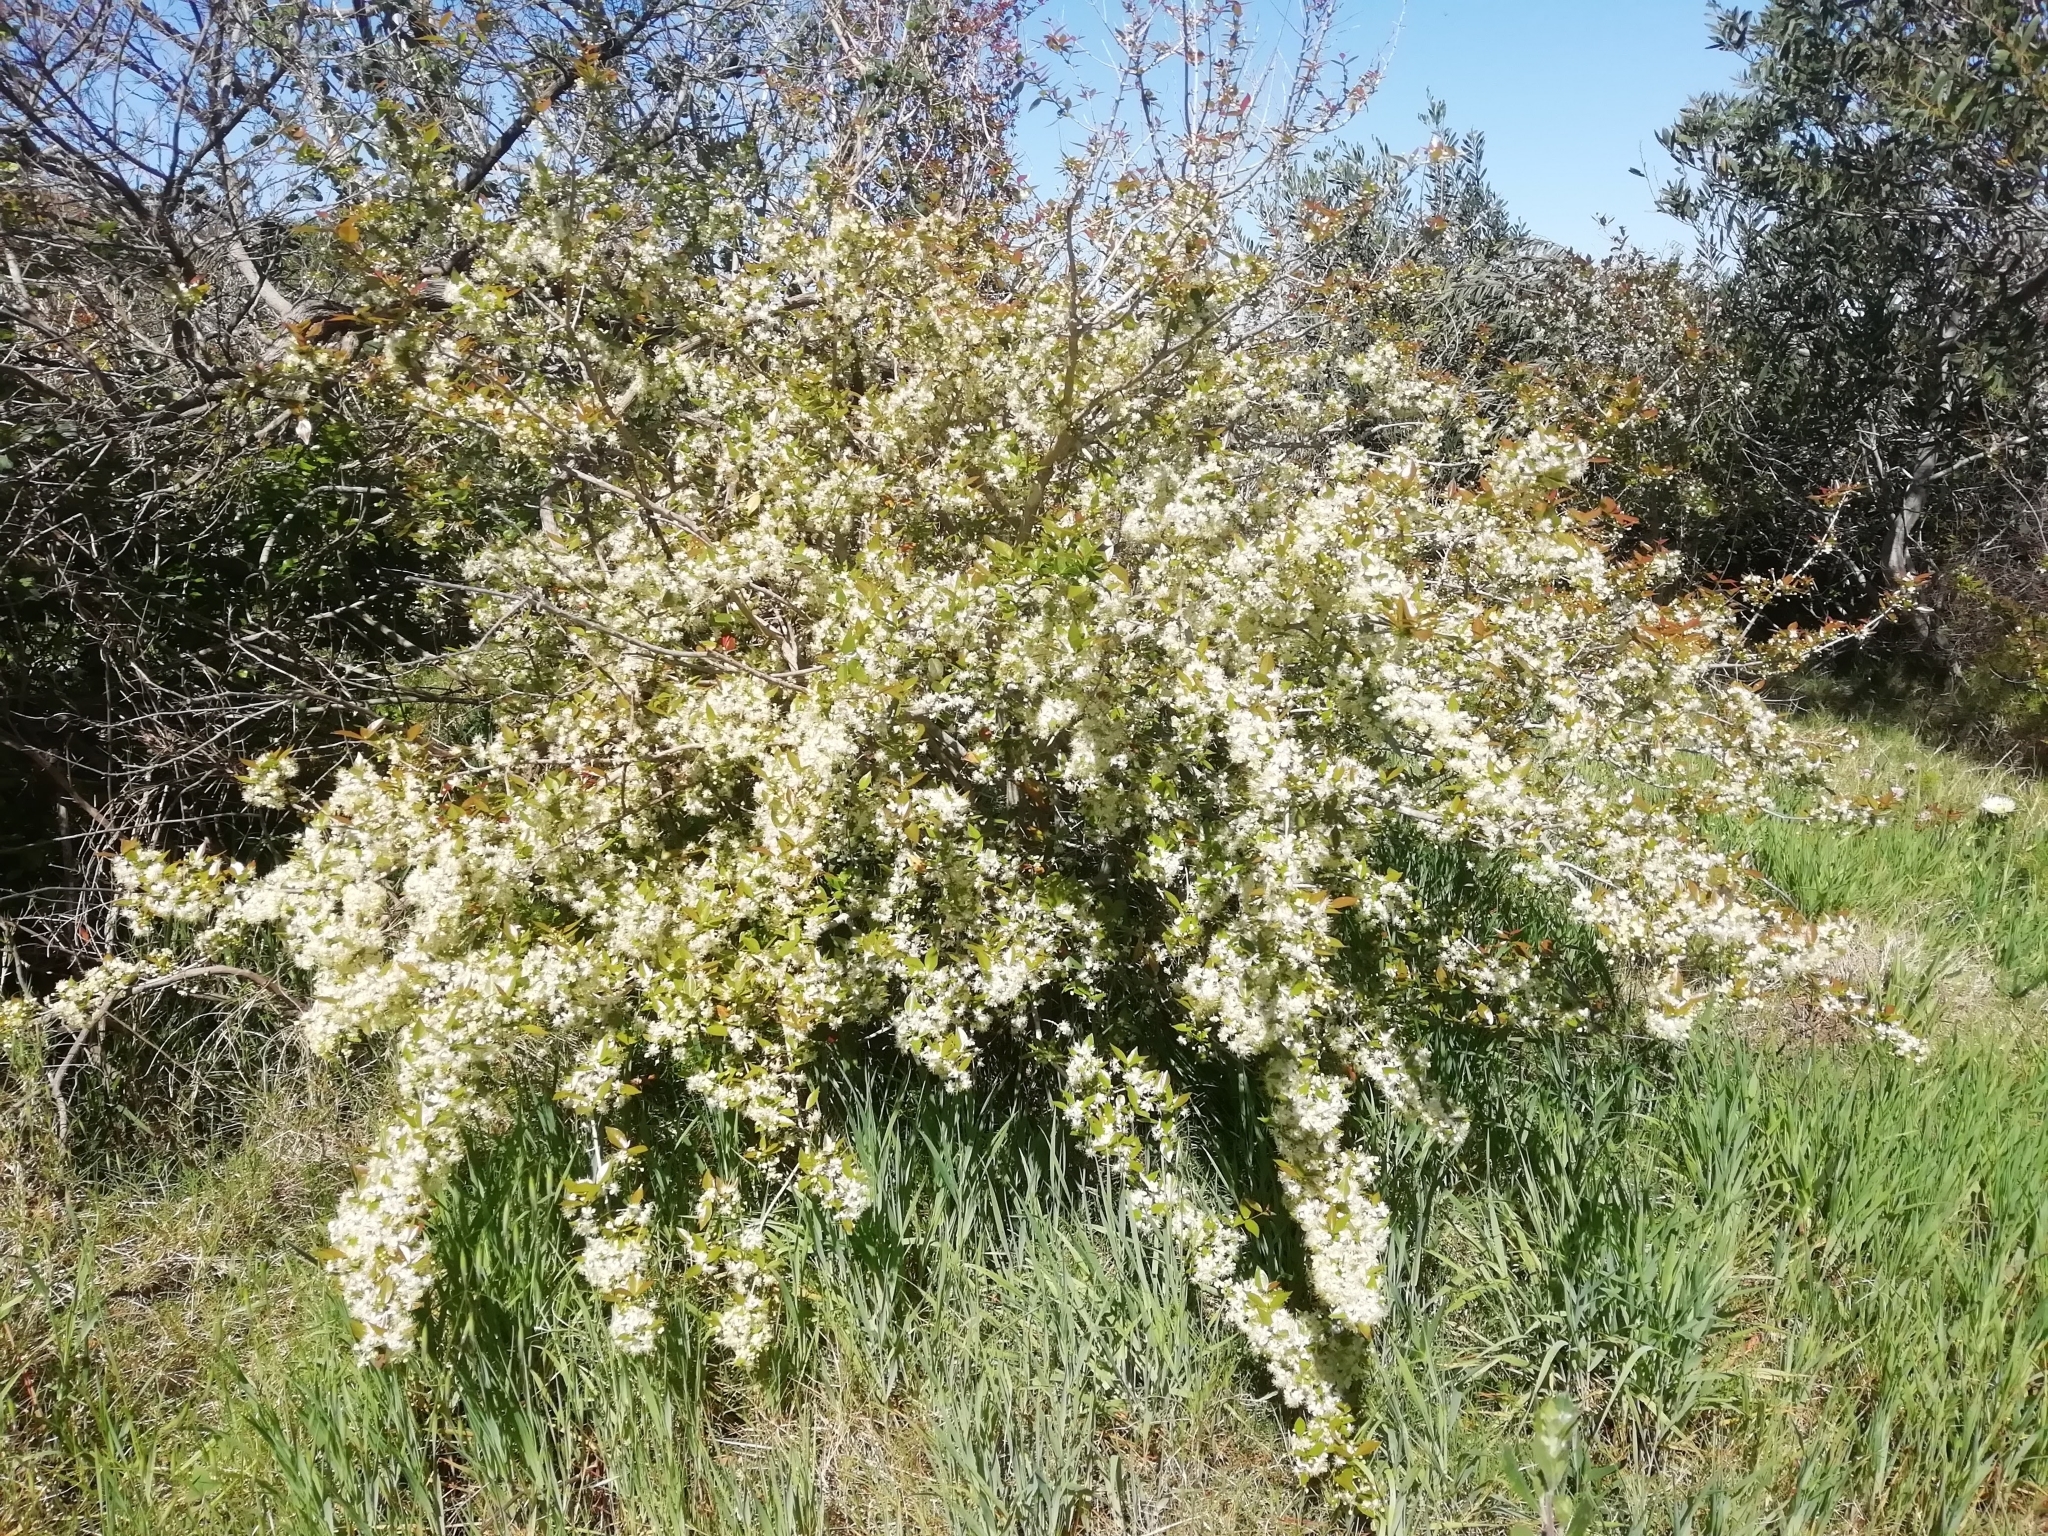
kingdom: Plantae
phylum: Tracheophyta
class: Magnoliopsida
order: Myrtales
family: Myrtaceae
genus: Eugenia
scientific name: Eugenia uniflora
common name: Surinam cherry
